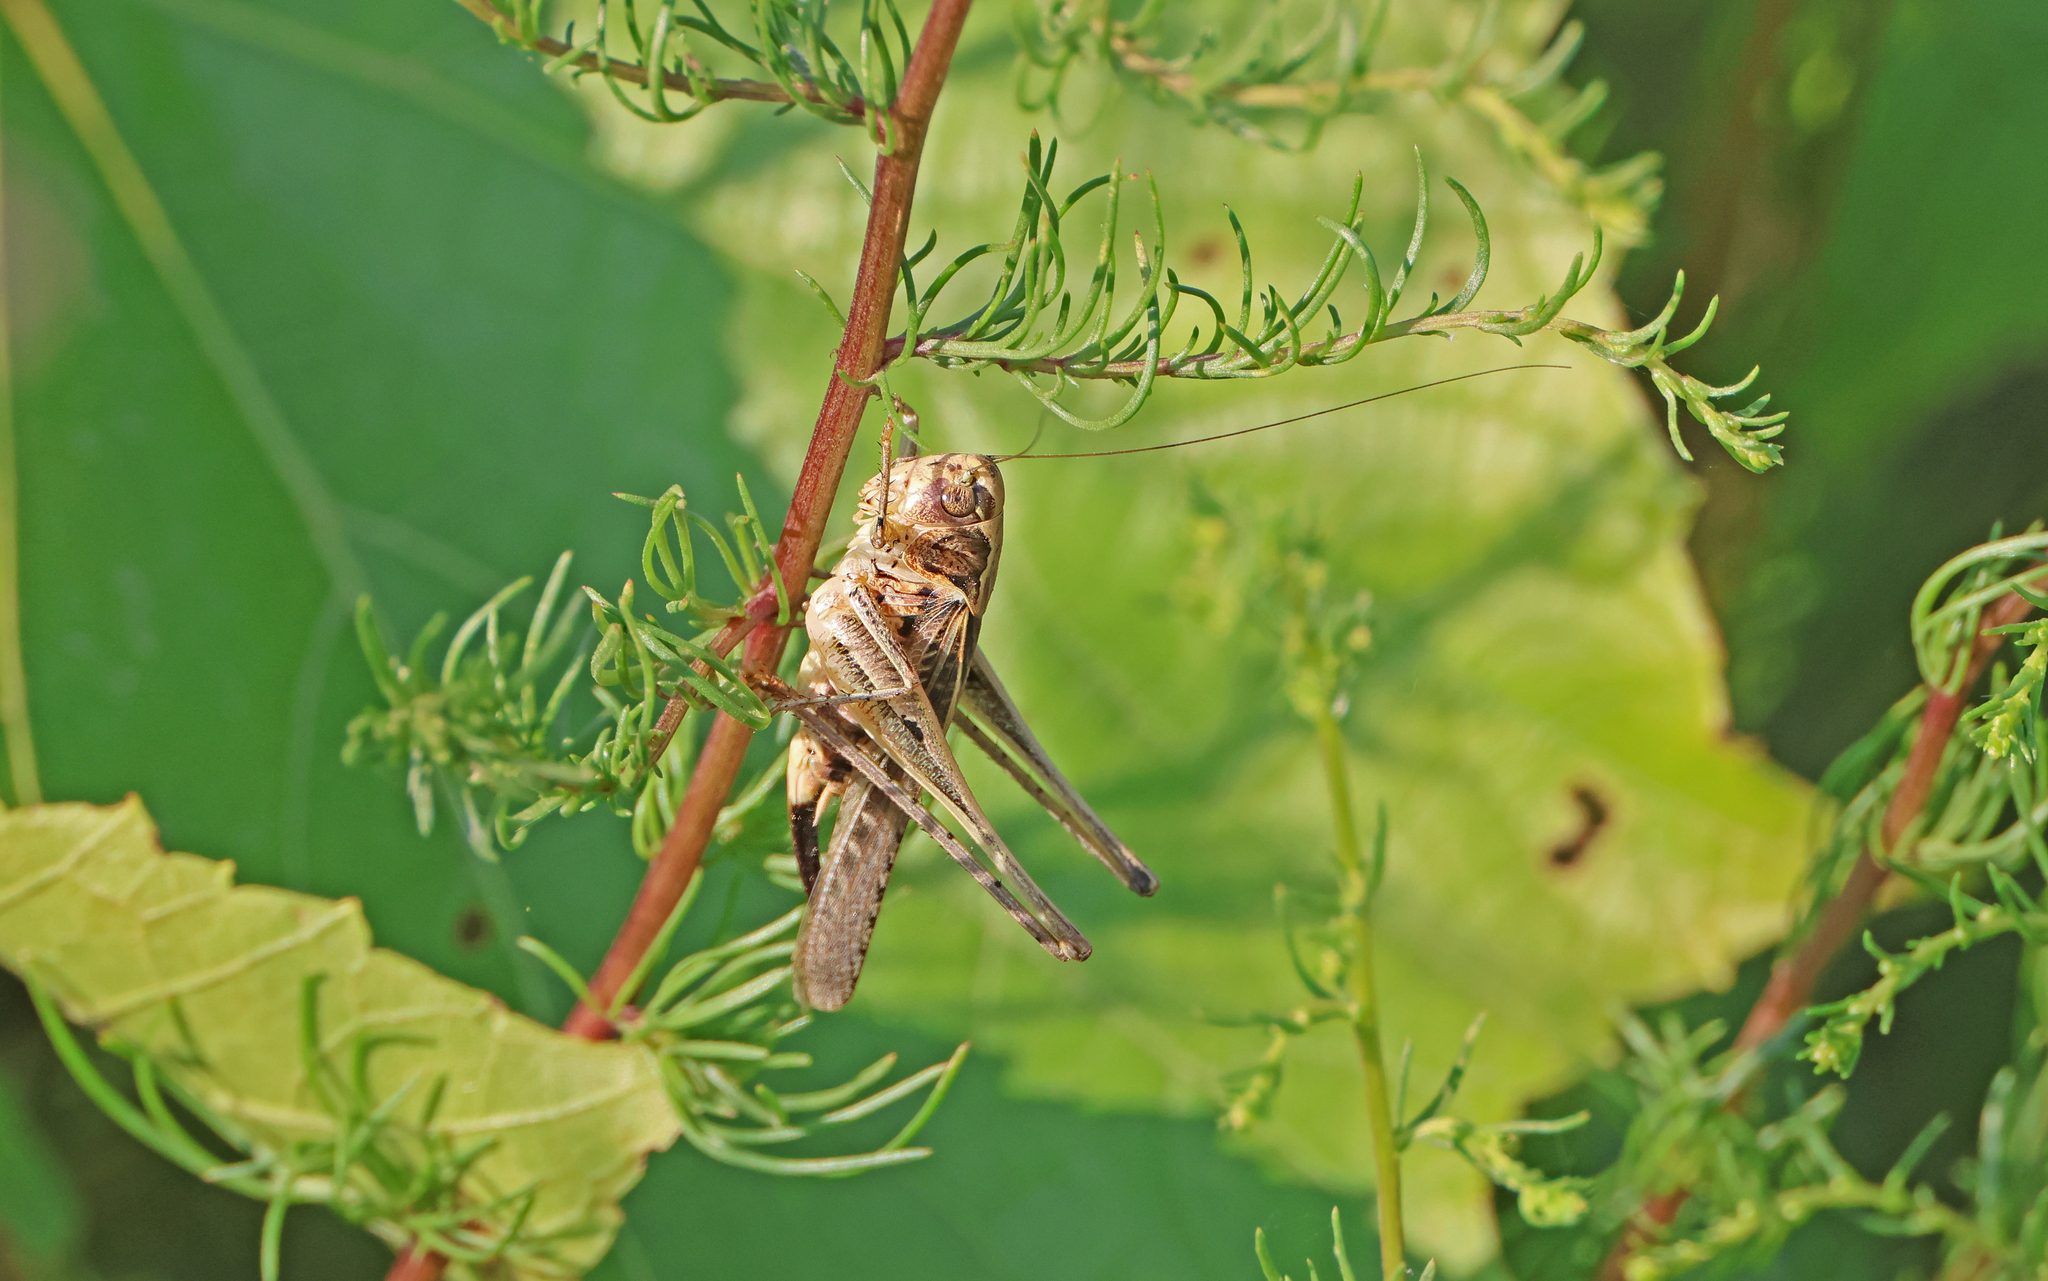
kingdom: Animalia
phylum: Arthropoda
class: Insecta
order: Orthoptera
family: Tettigoniidae
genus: Platycleis
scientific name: Platycleis affinis
